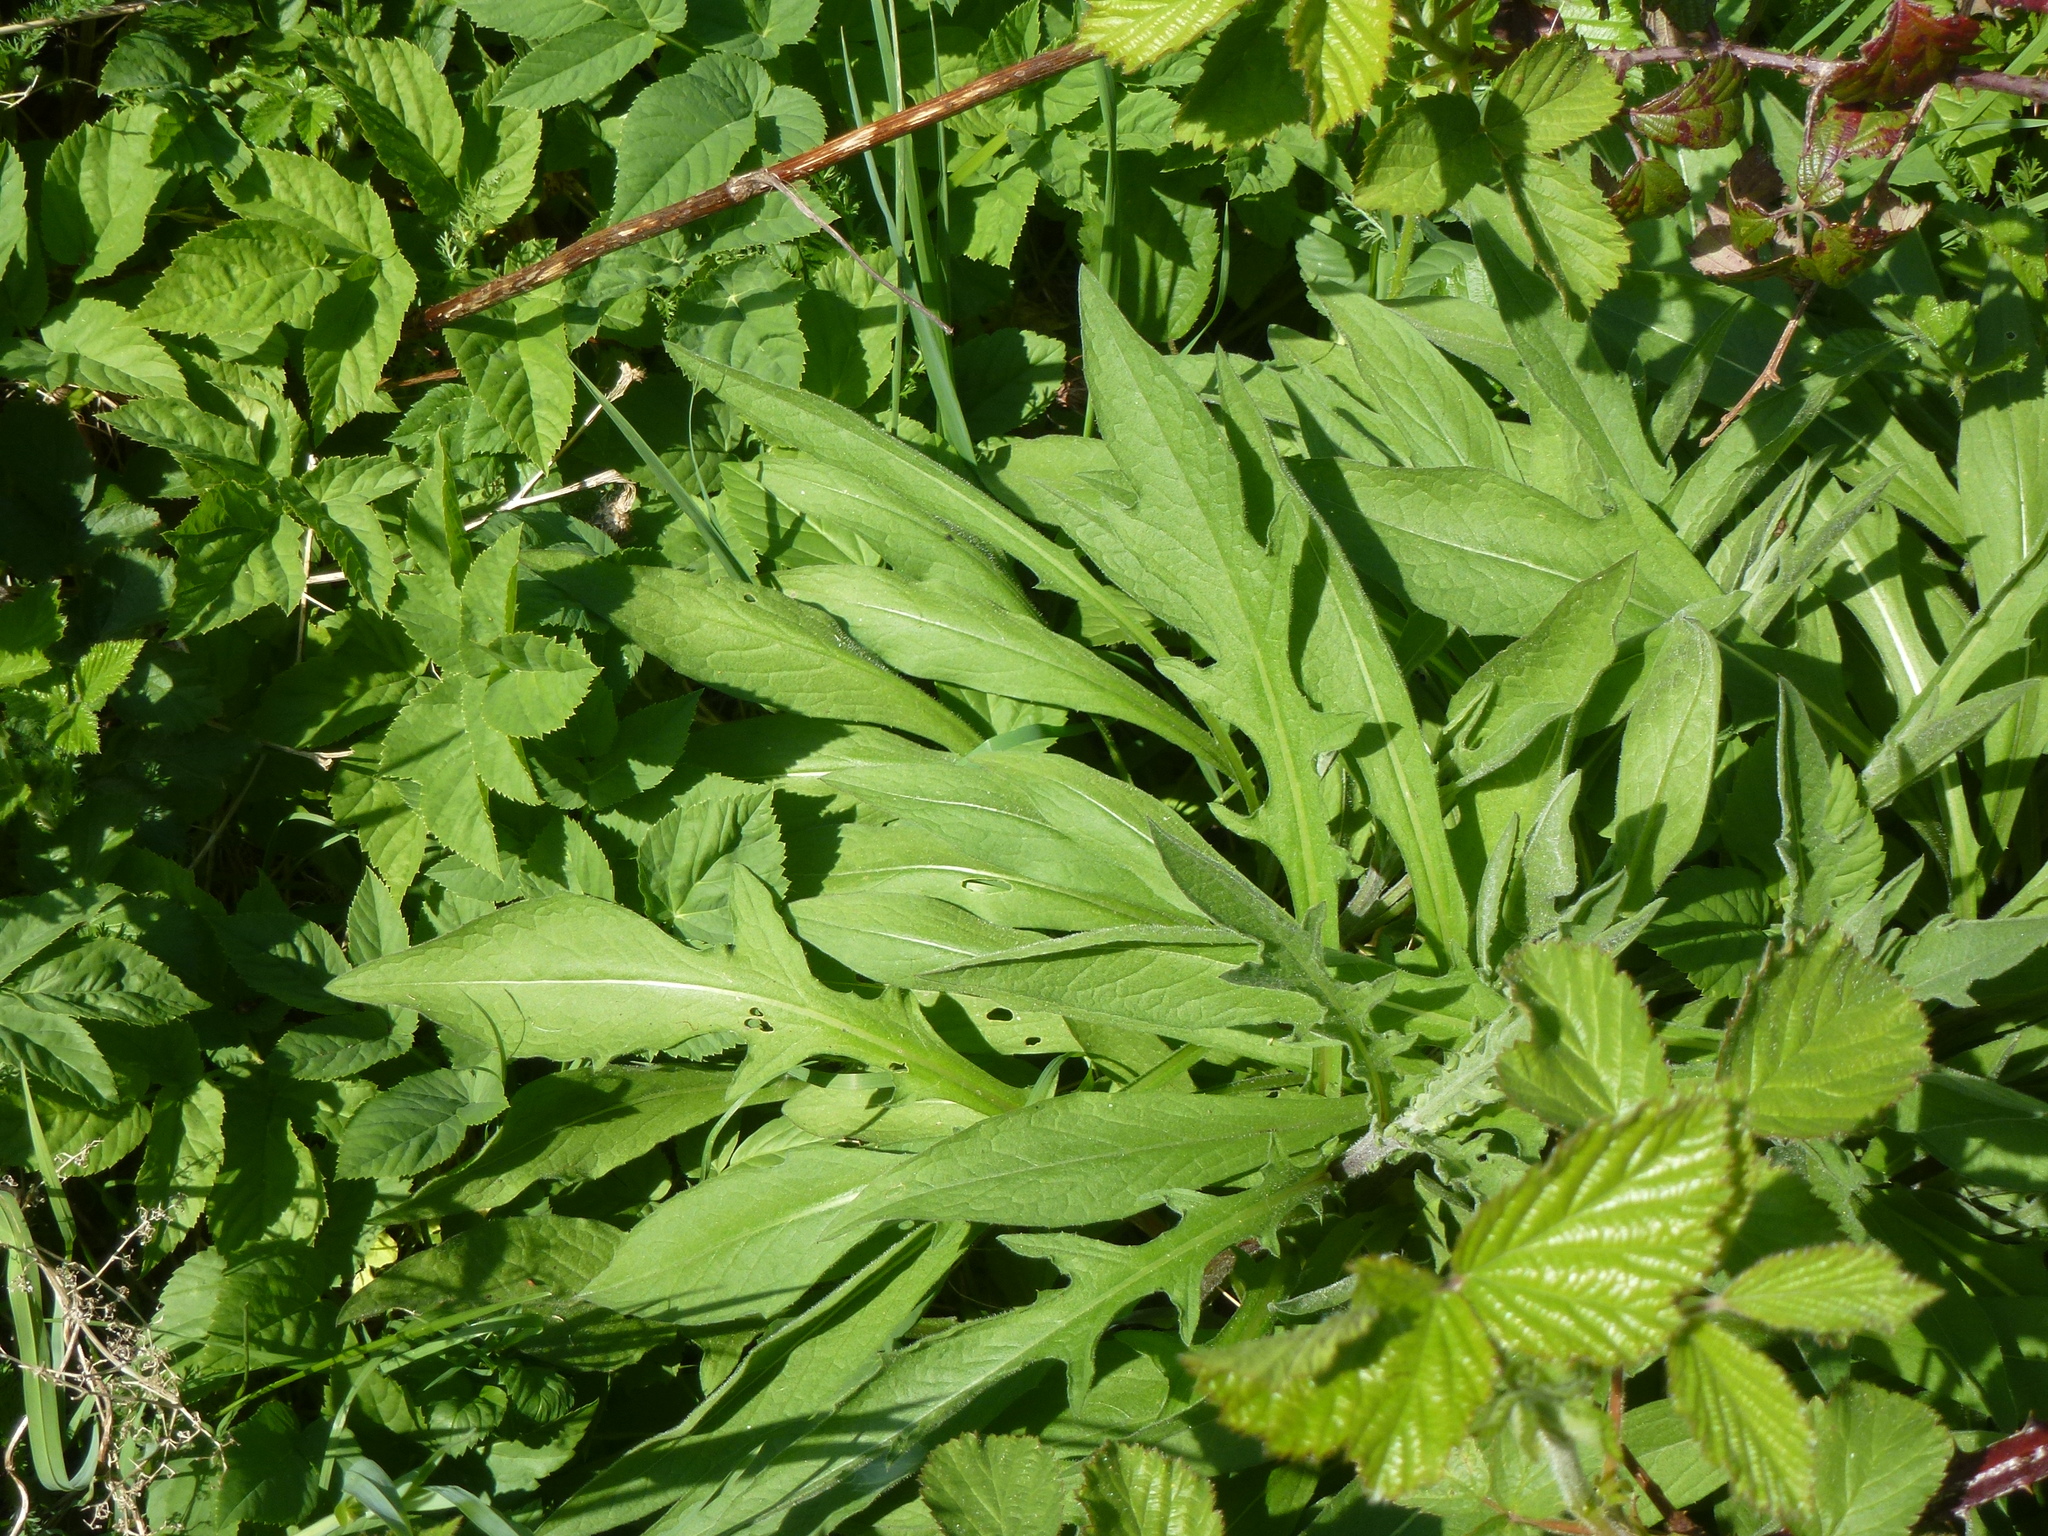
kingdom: Plantae
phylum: Tracheophyta
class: Magnoliopsida
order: Dipsacales
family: Caprifoliaceae
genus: Knautia
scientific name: Knautia arvensis
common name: Field scabiosa
